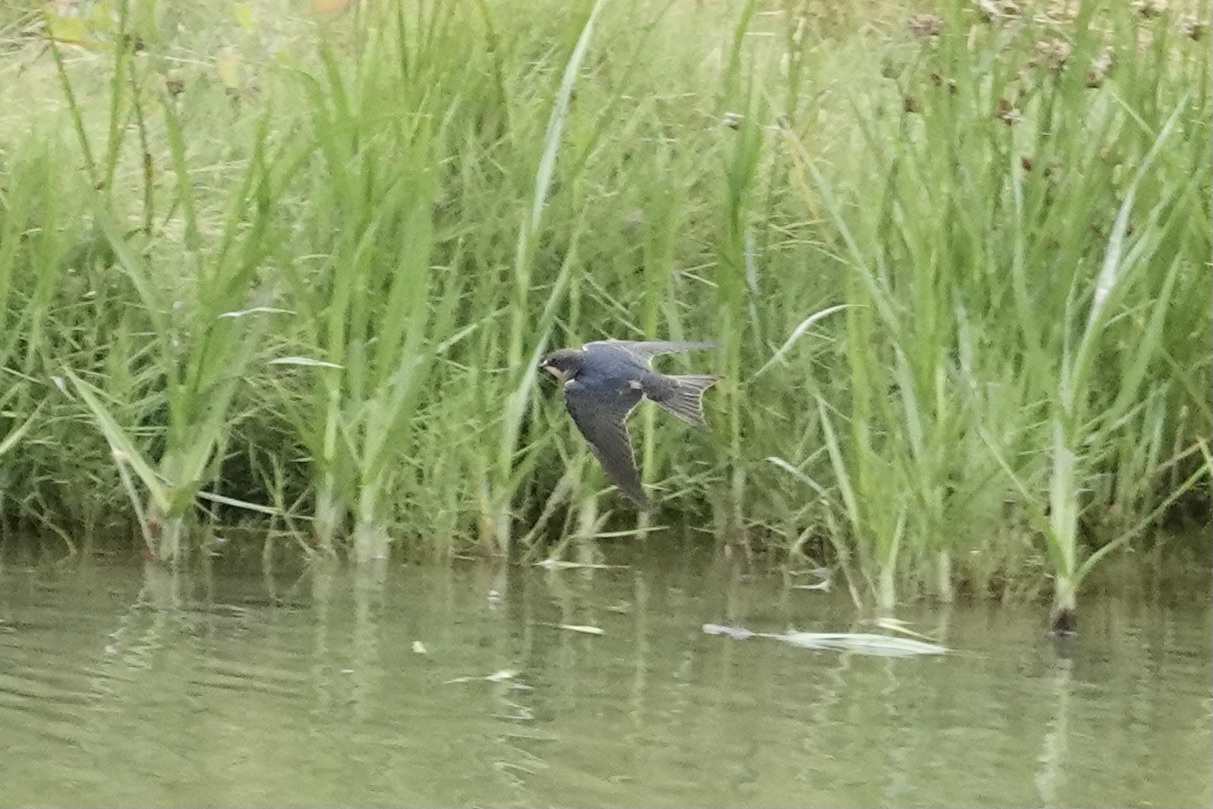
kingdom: Animalia
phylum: Chordata
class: Aves
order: Passeriformes
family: Hirundinidae
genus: Hirundo
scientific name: Hirundo rustica
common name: Barn swallow
